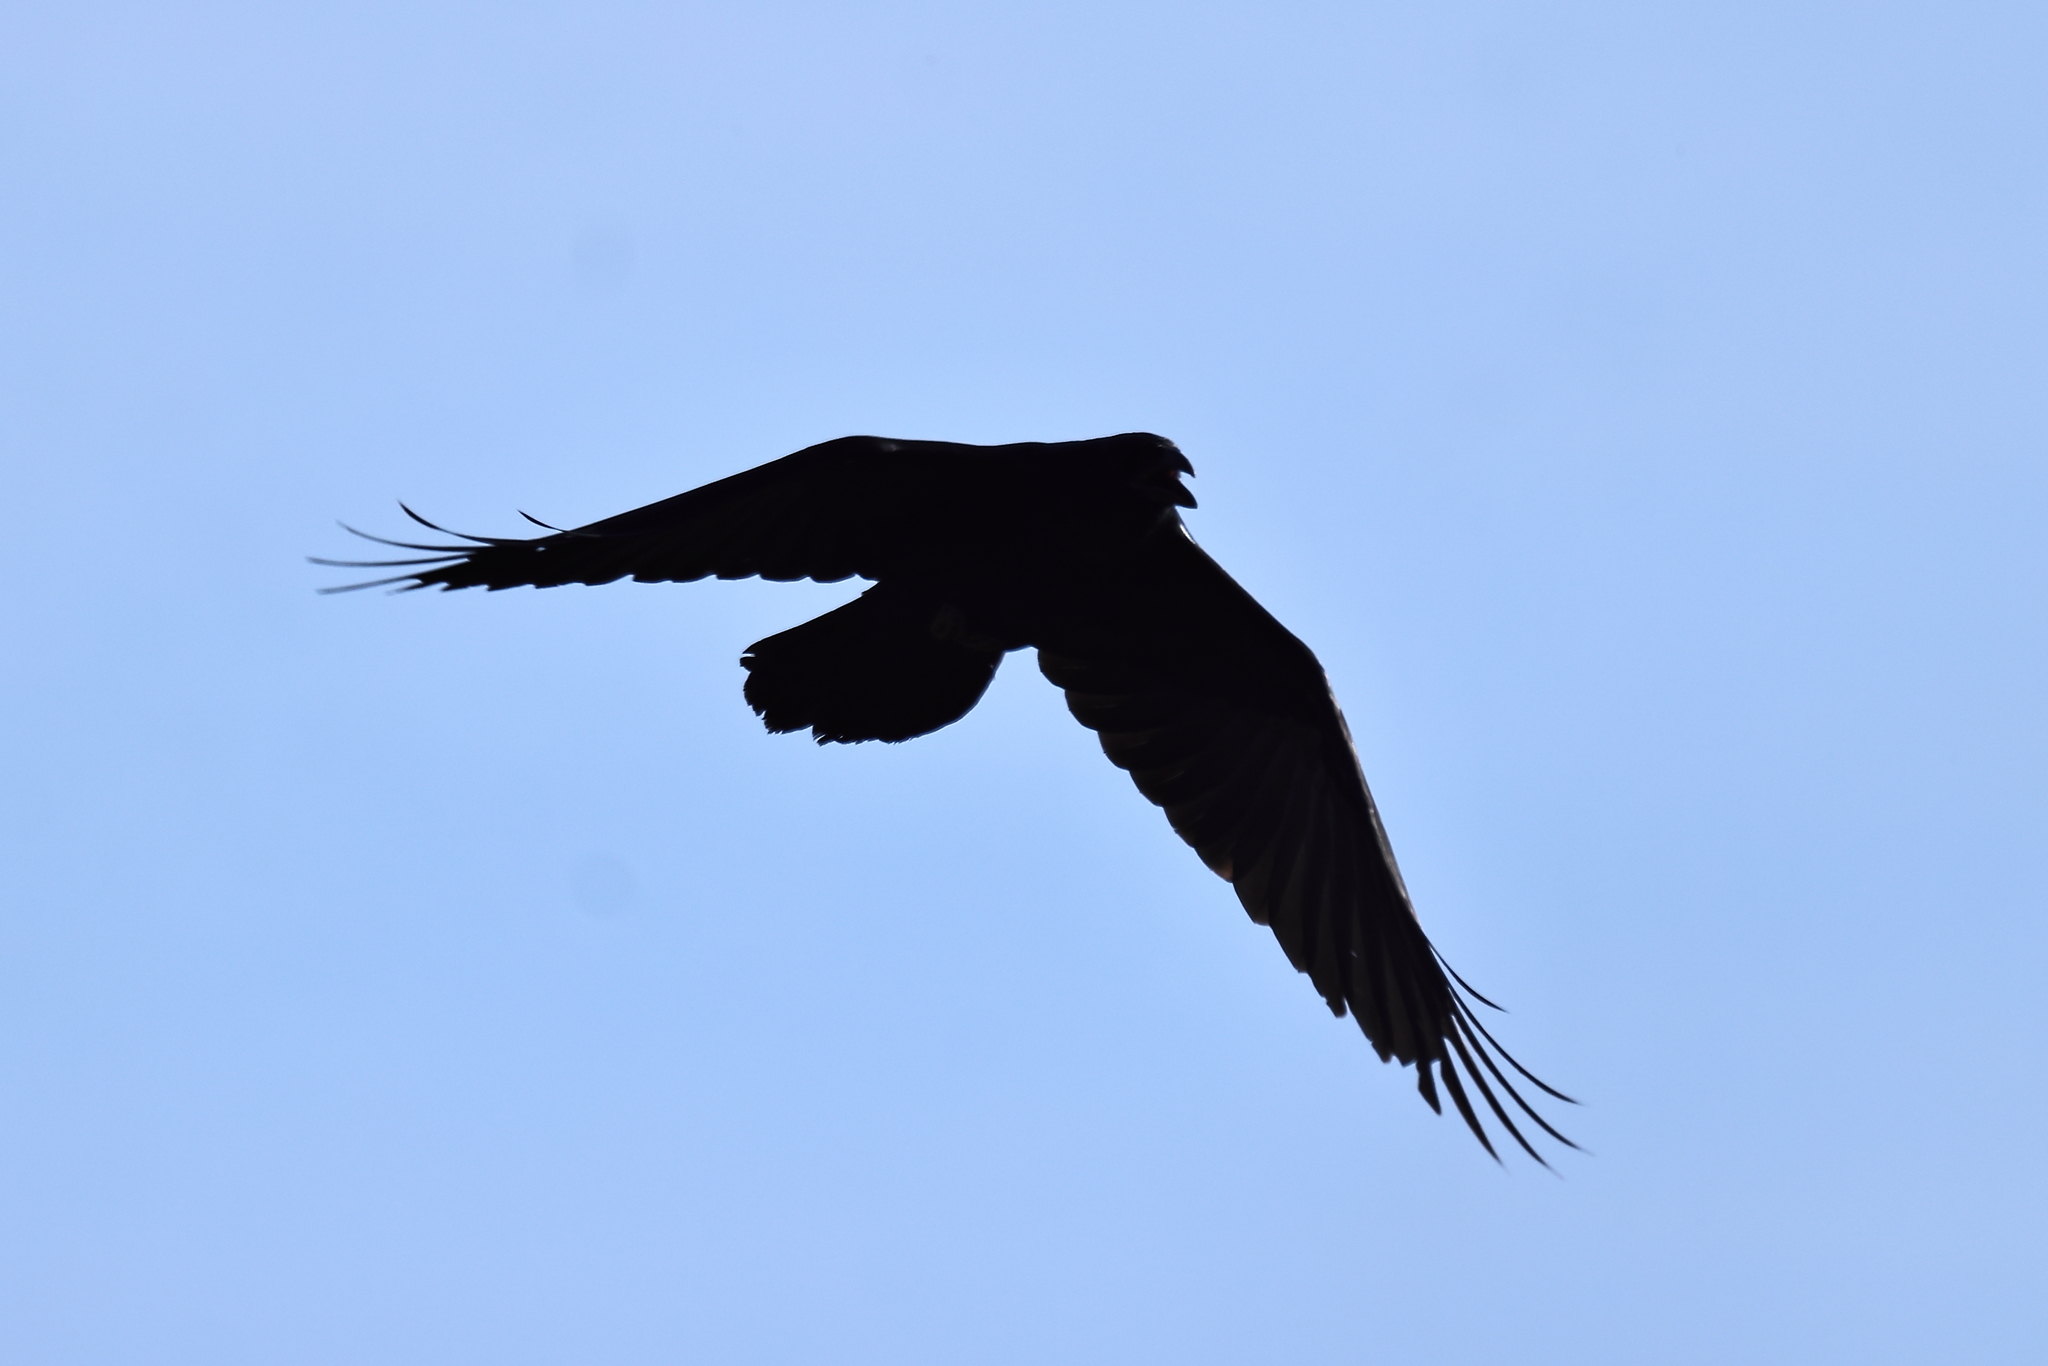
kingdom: Animalia
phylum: Chordata
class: Aves
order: Passeriformes
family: Corvidae
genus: Corvus
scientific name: Corvus corax
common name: Common raven
